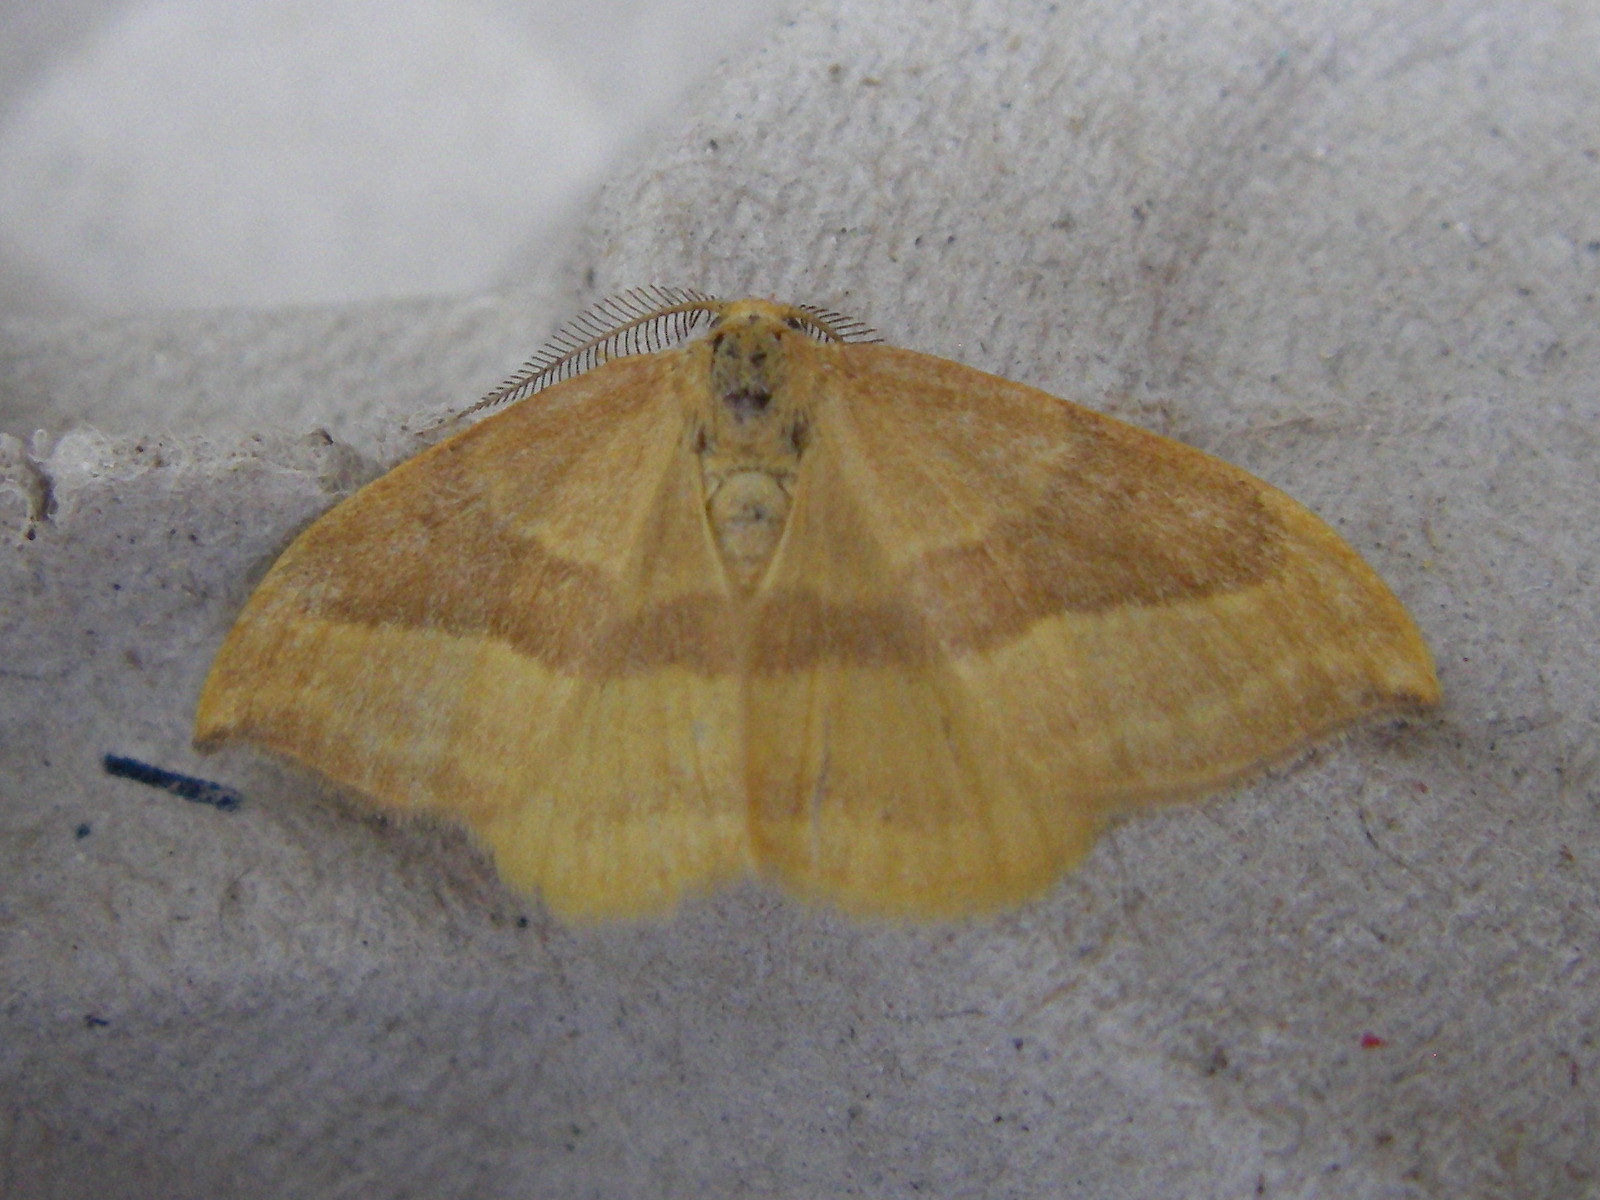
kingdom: Animalia
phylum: Arthropoda
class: Insecta
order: Lepidoptera
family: Drepanidae
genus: Watsonalla
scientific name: Watsonalla cultraria
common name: Barred hook-tip
